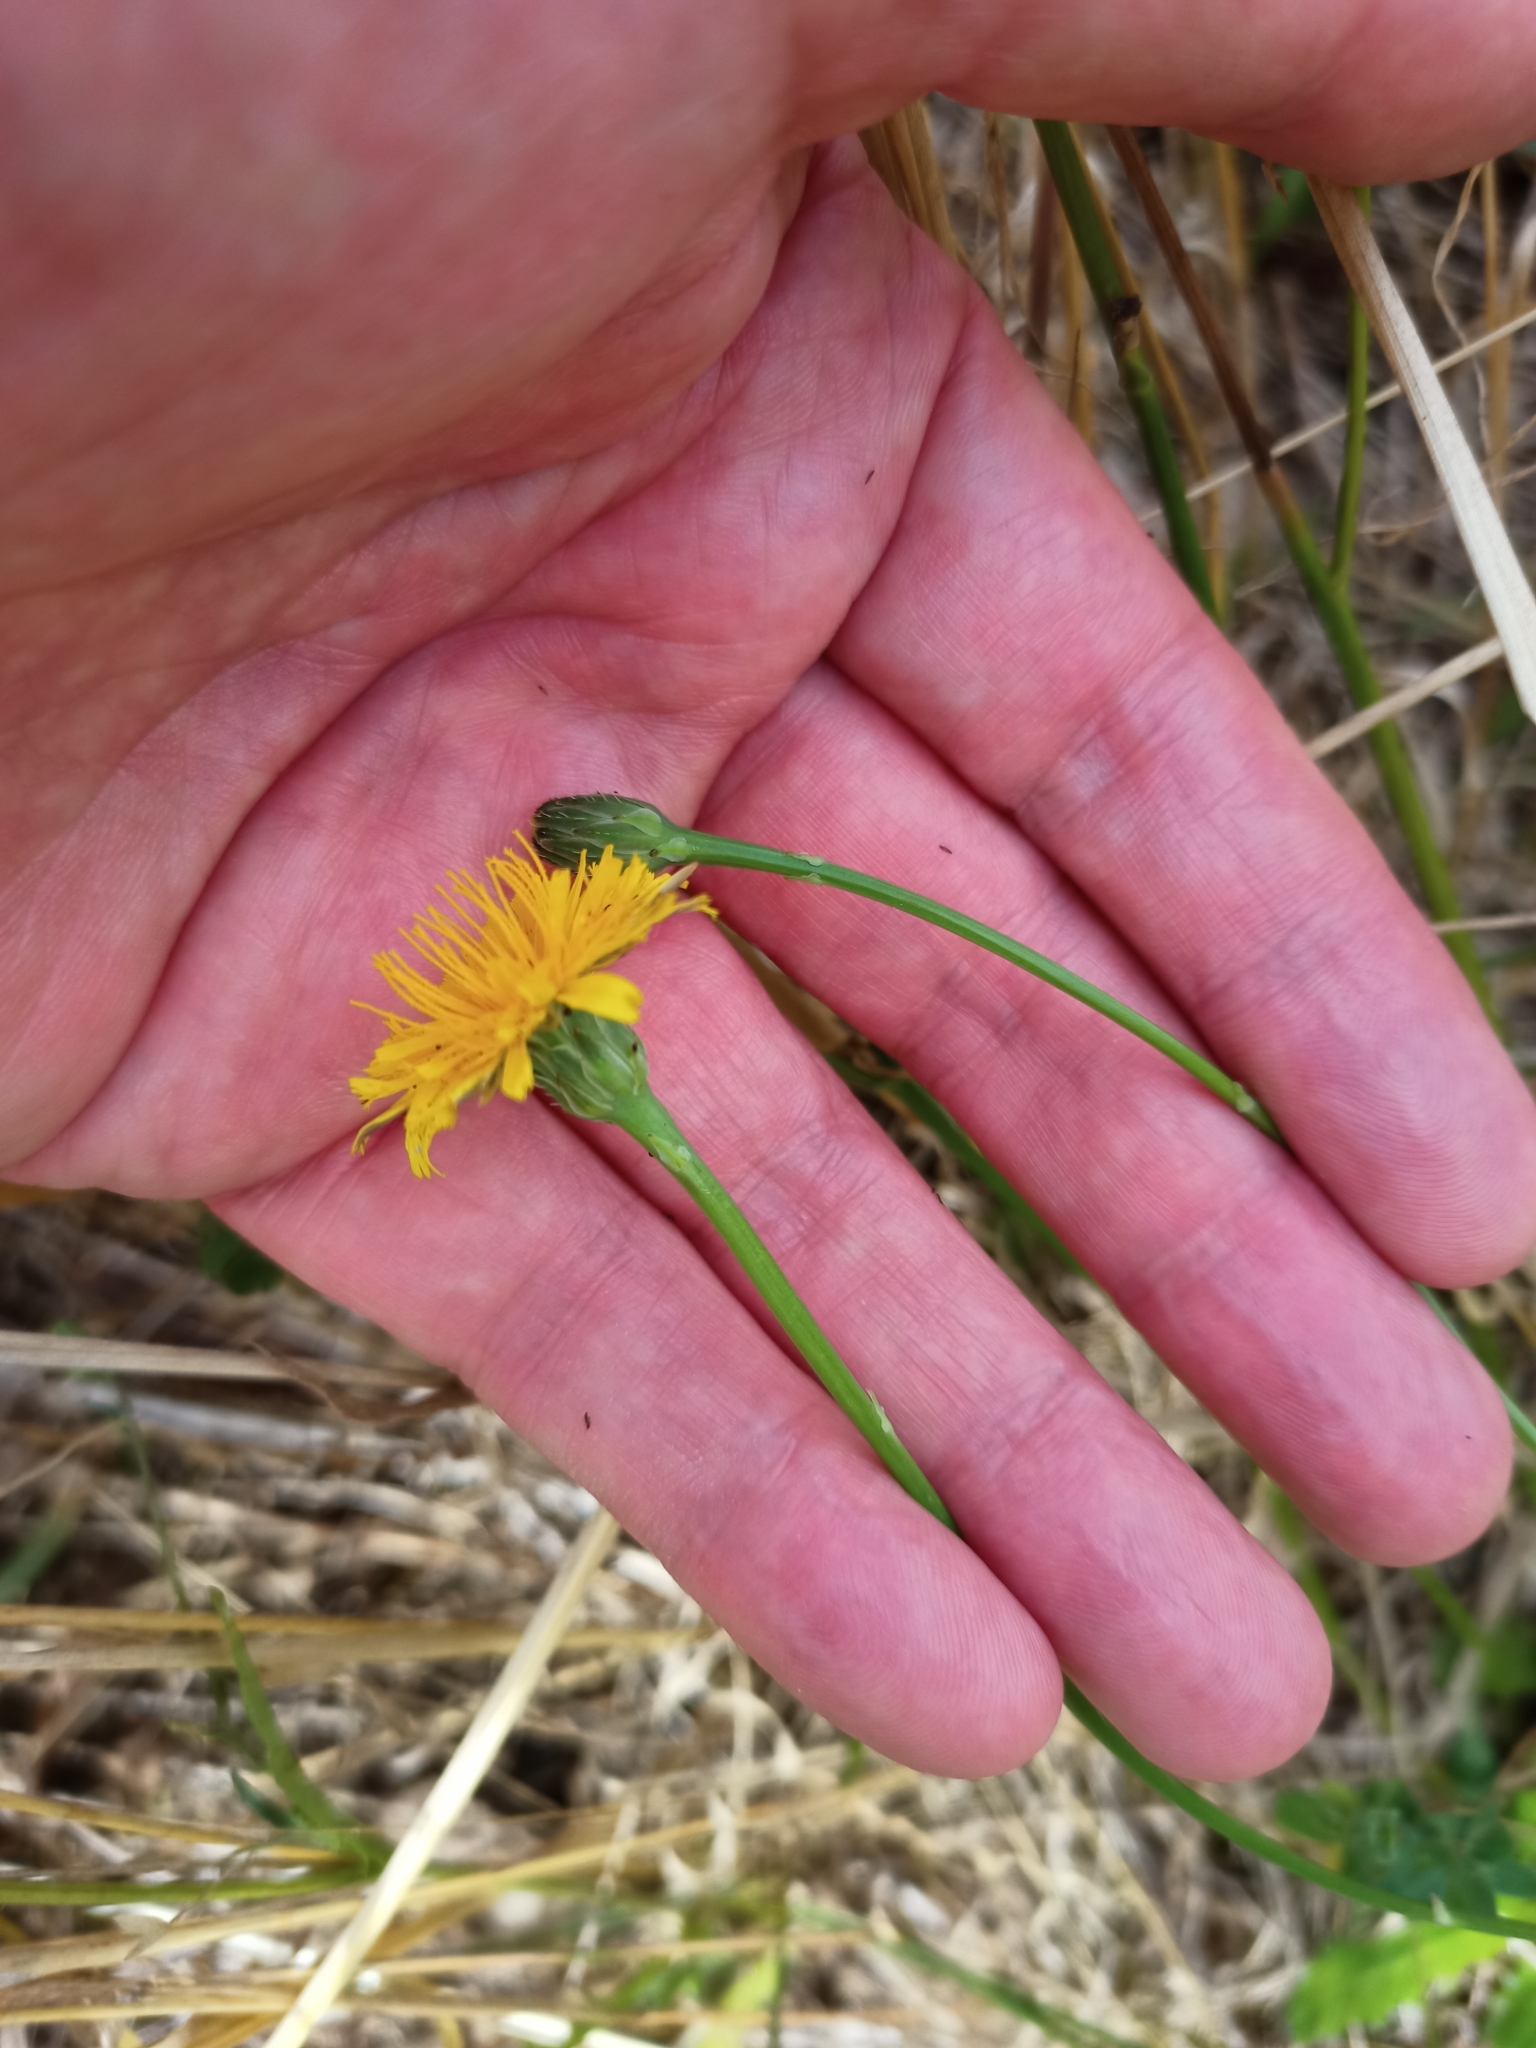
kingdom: Plantae
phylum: Tracheophyta
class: Magnoliopsida
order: Asterales
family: Asteraceae
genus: Hypochaeris
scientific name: Hypochaeris radicata
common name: Flatweed
